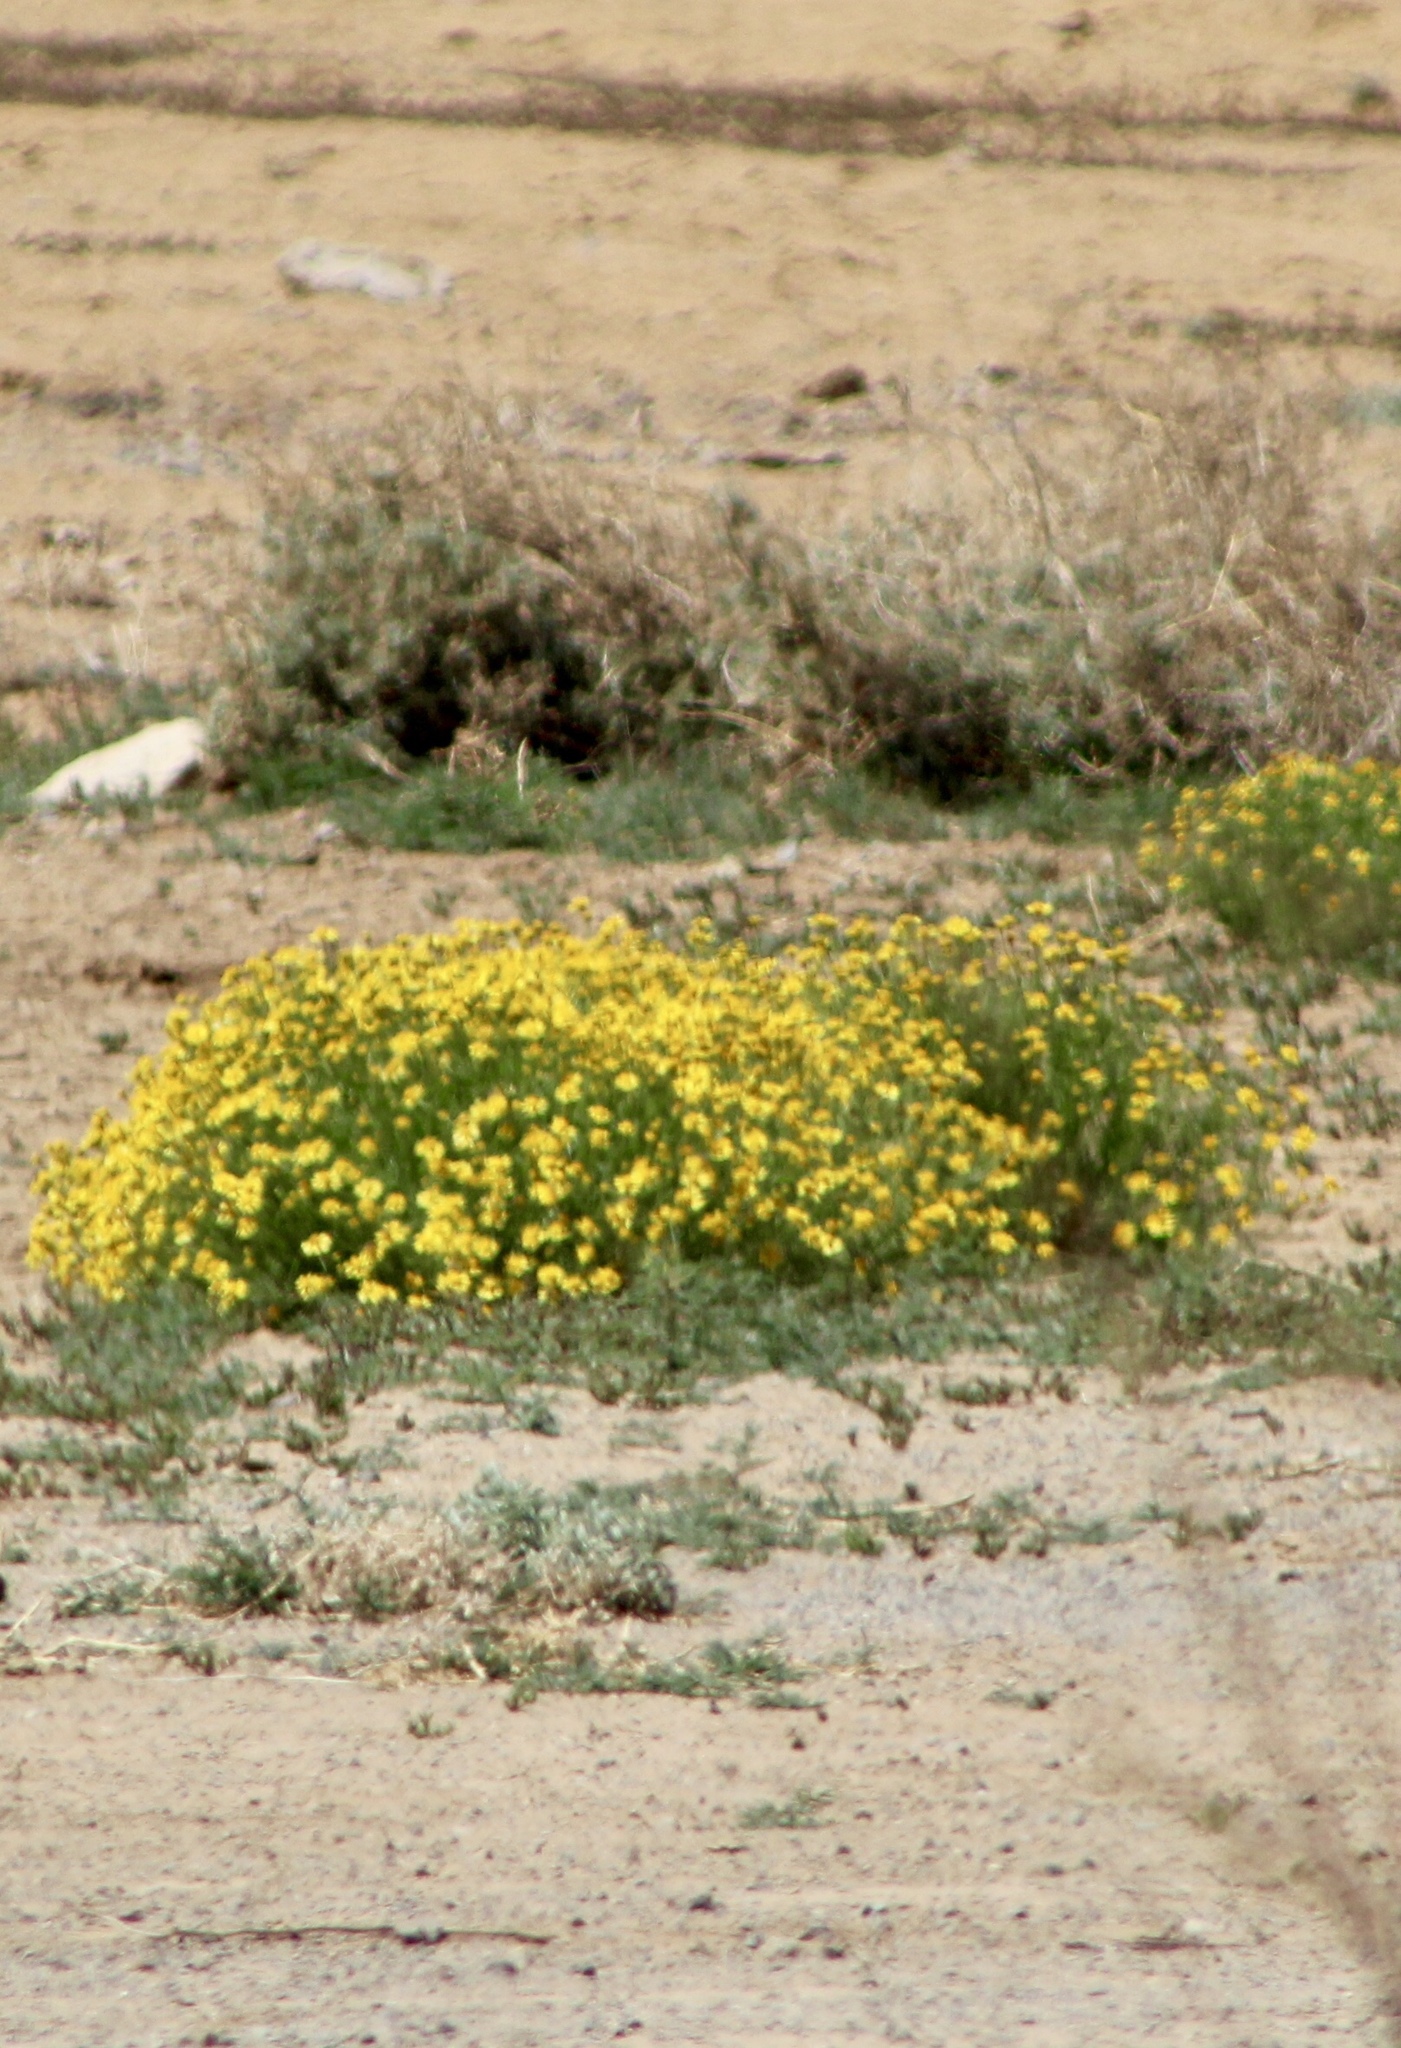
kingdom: Plantae
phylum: Tracheophyta
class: Magnoliopsida
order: Asterales
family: Asteraceae
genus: Hymenoxys
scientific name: Hymenoxys odorata
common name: Bitter rubberweed
